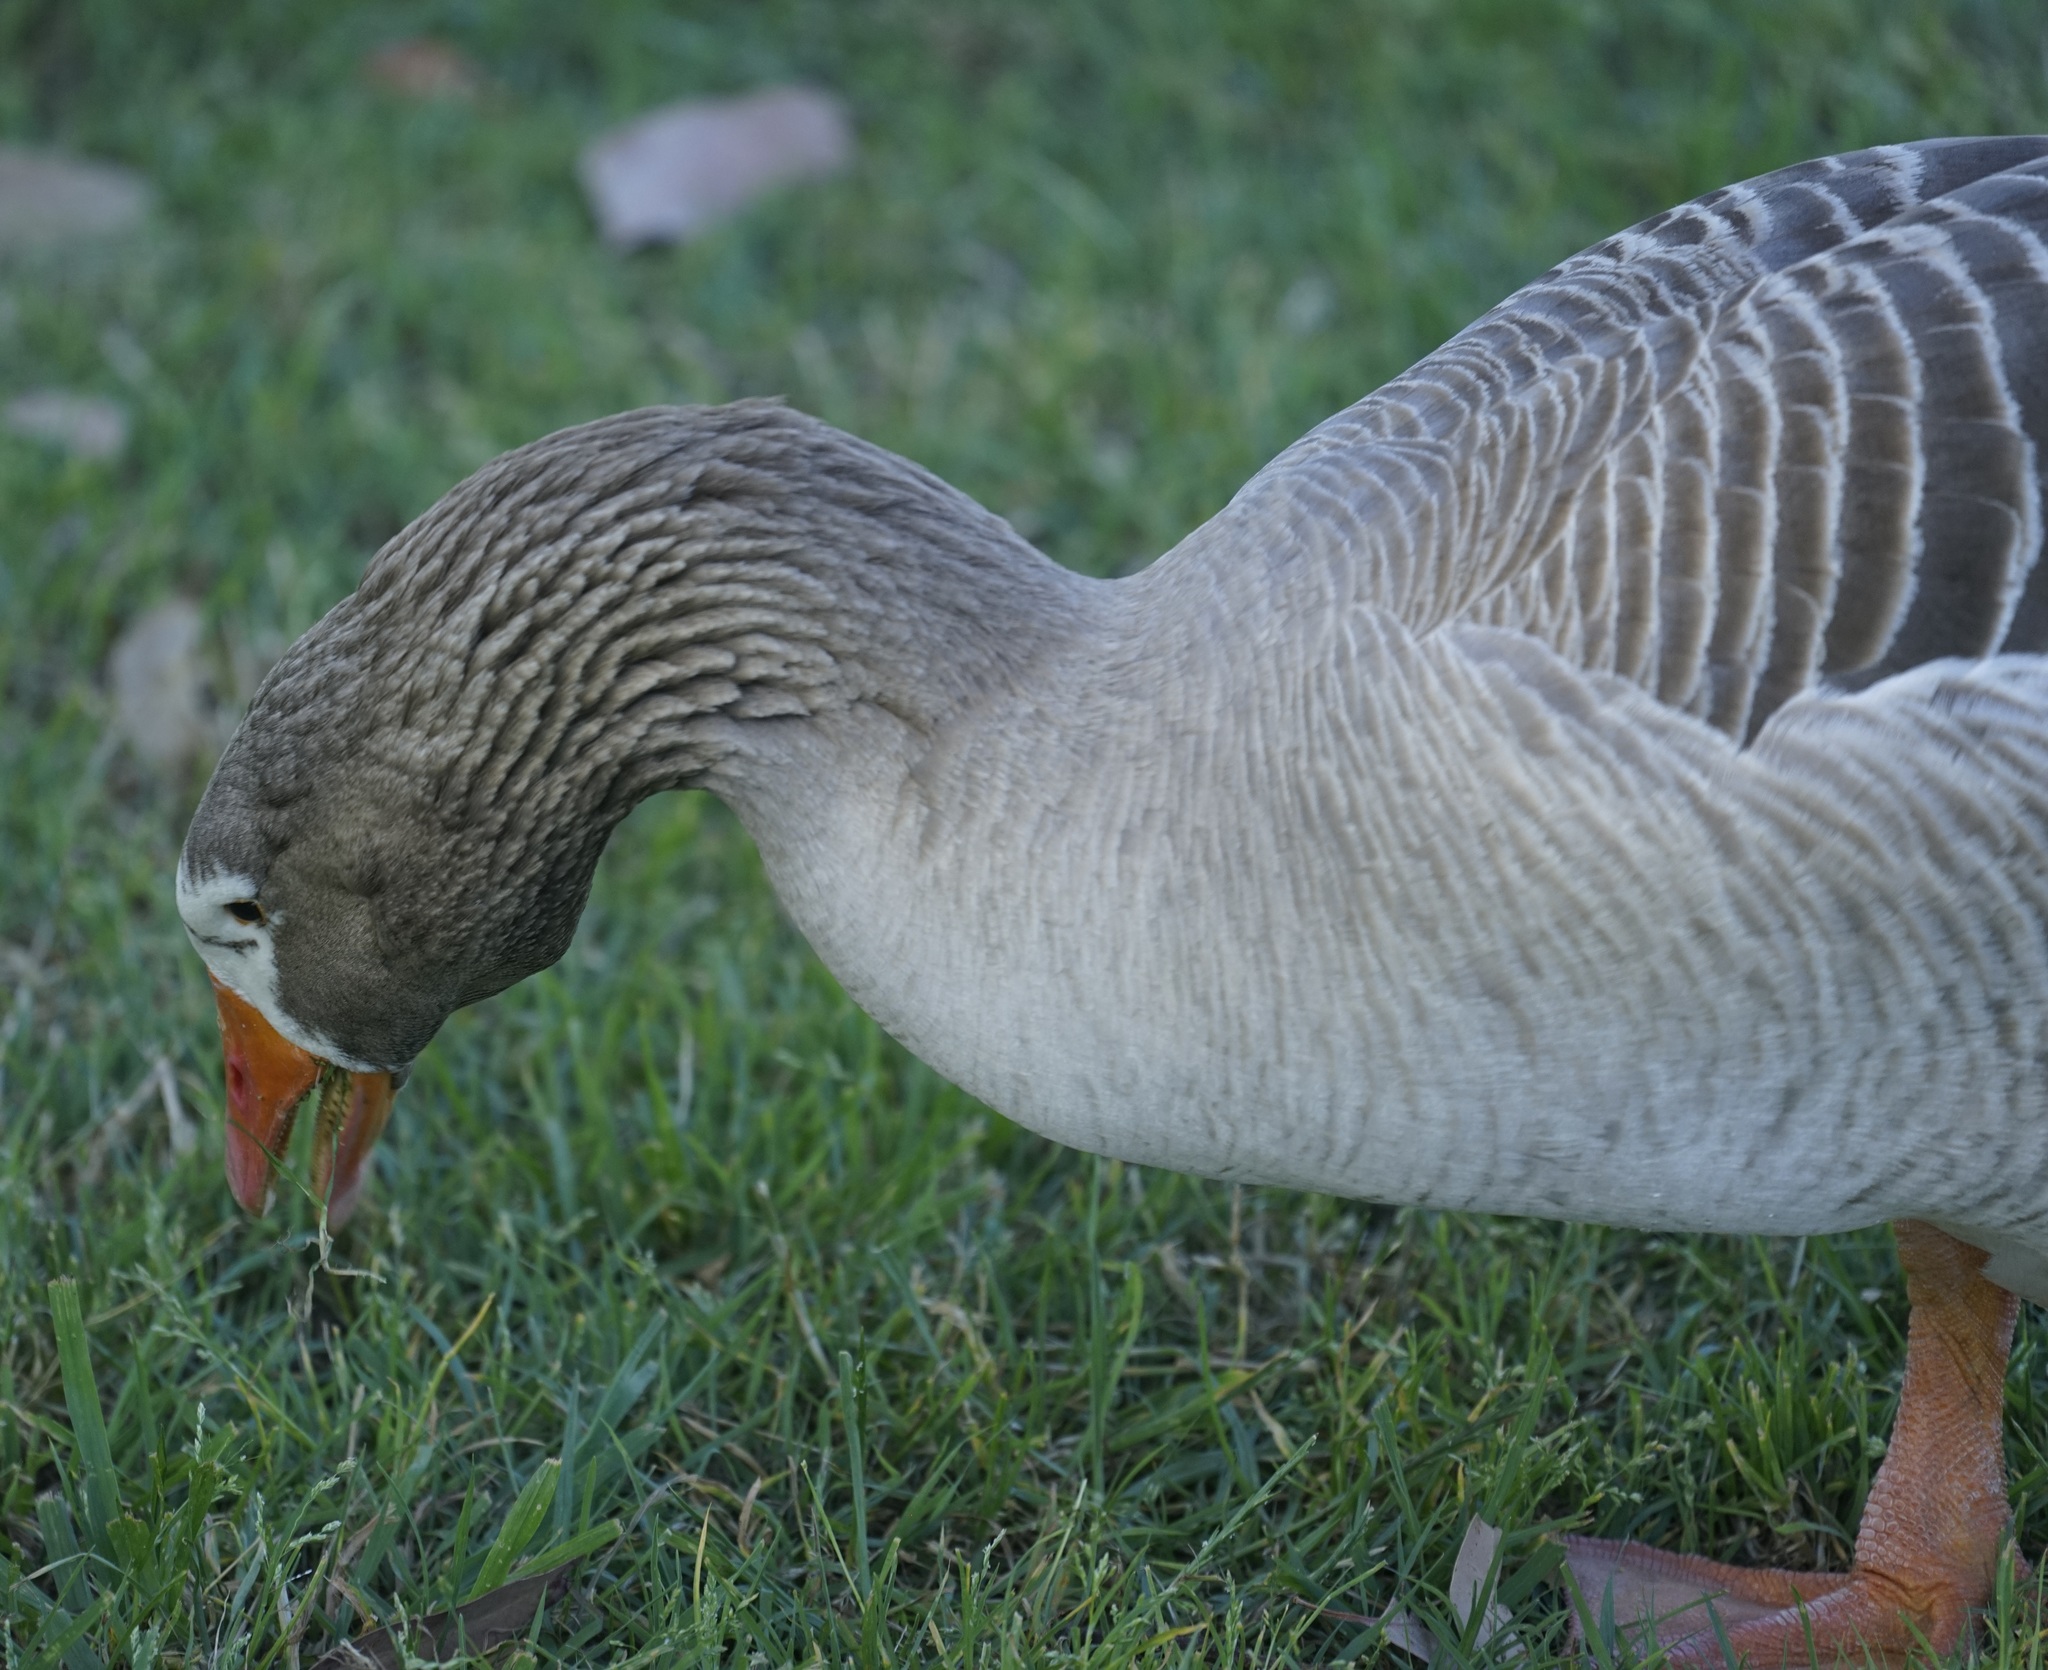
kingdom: Animalia
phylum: Chordata
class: Aves
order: Anseriformes
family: Anatidae
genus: Anser
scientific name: Anser anser
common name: Greylag goose
